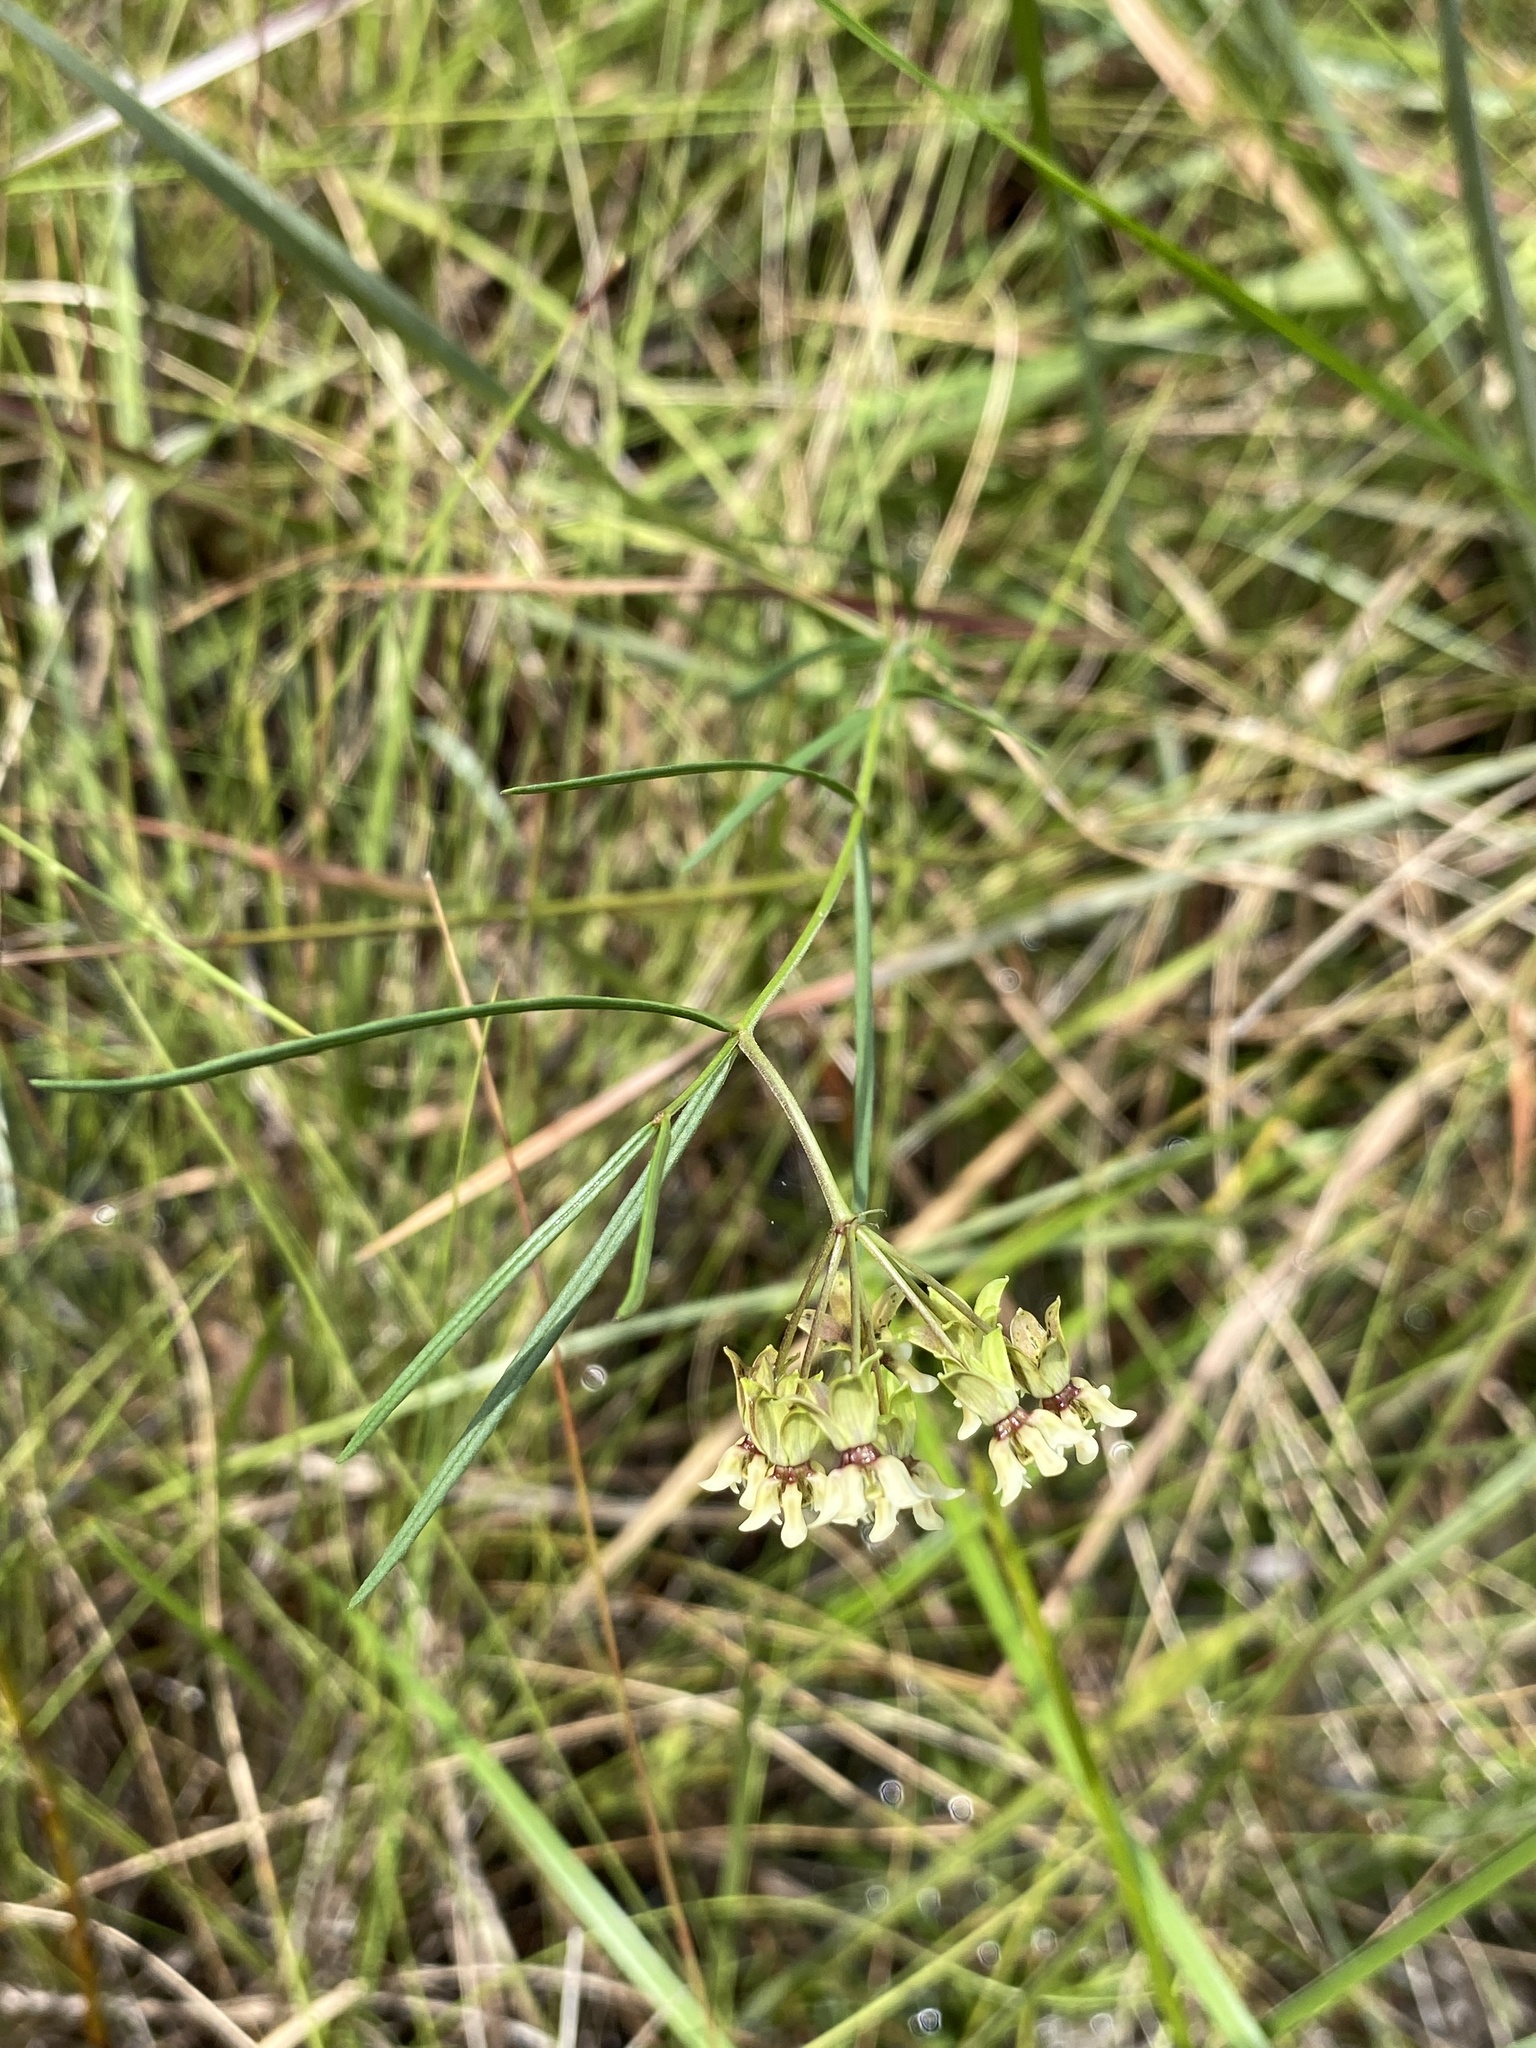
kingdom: Plantae
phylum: Tracheophyta
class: Magnoliopsida
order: Gentianales
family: Apocynaceae
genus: Asclepias
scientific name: Asclepias viridula
